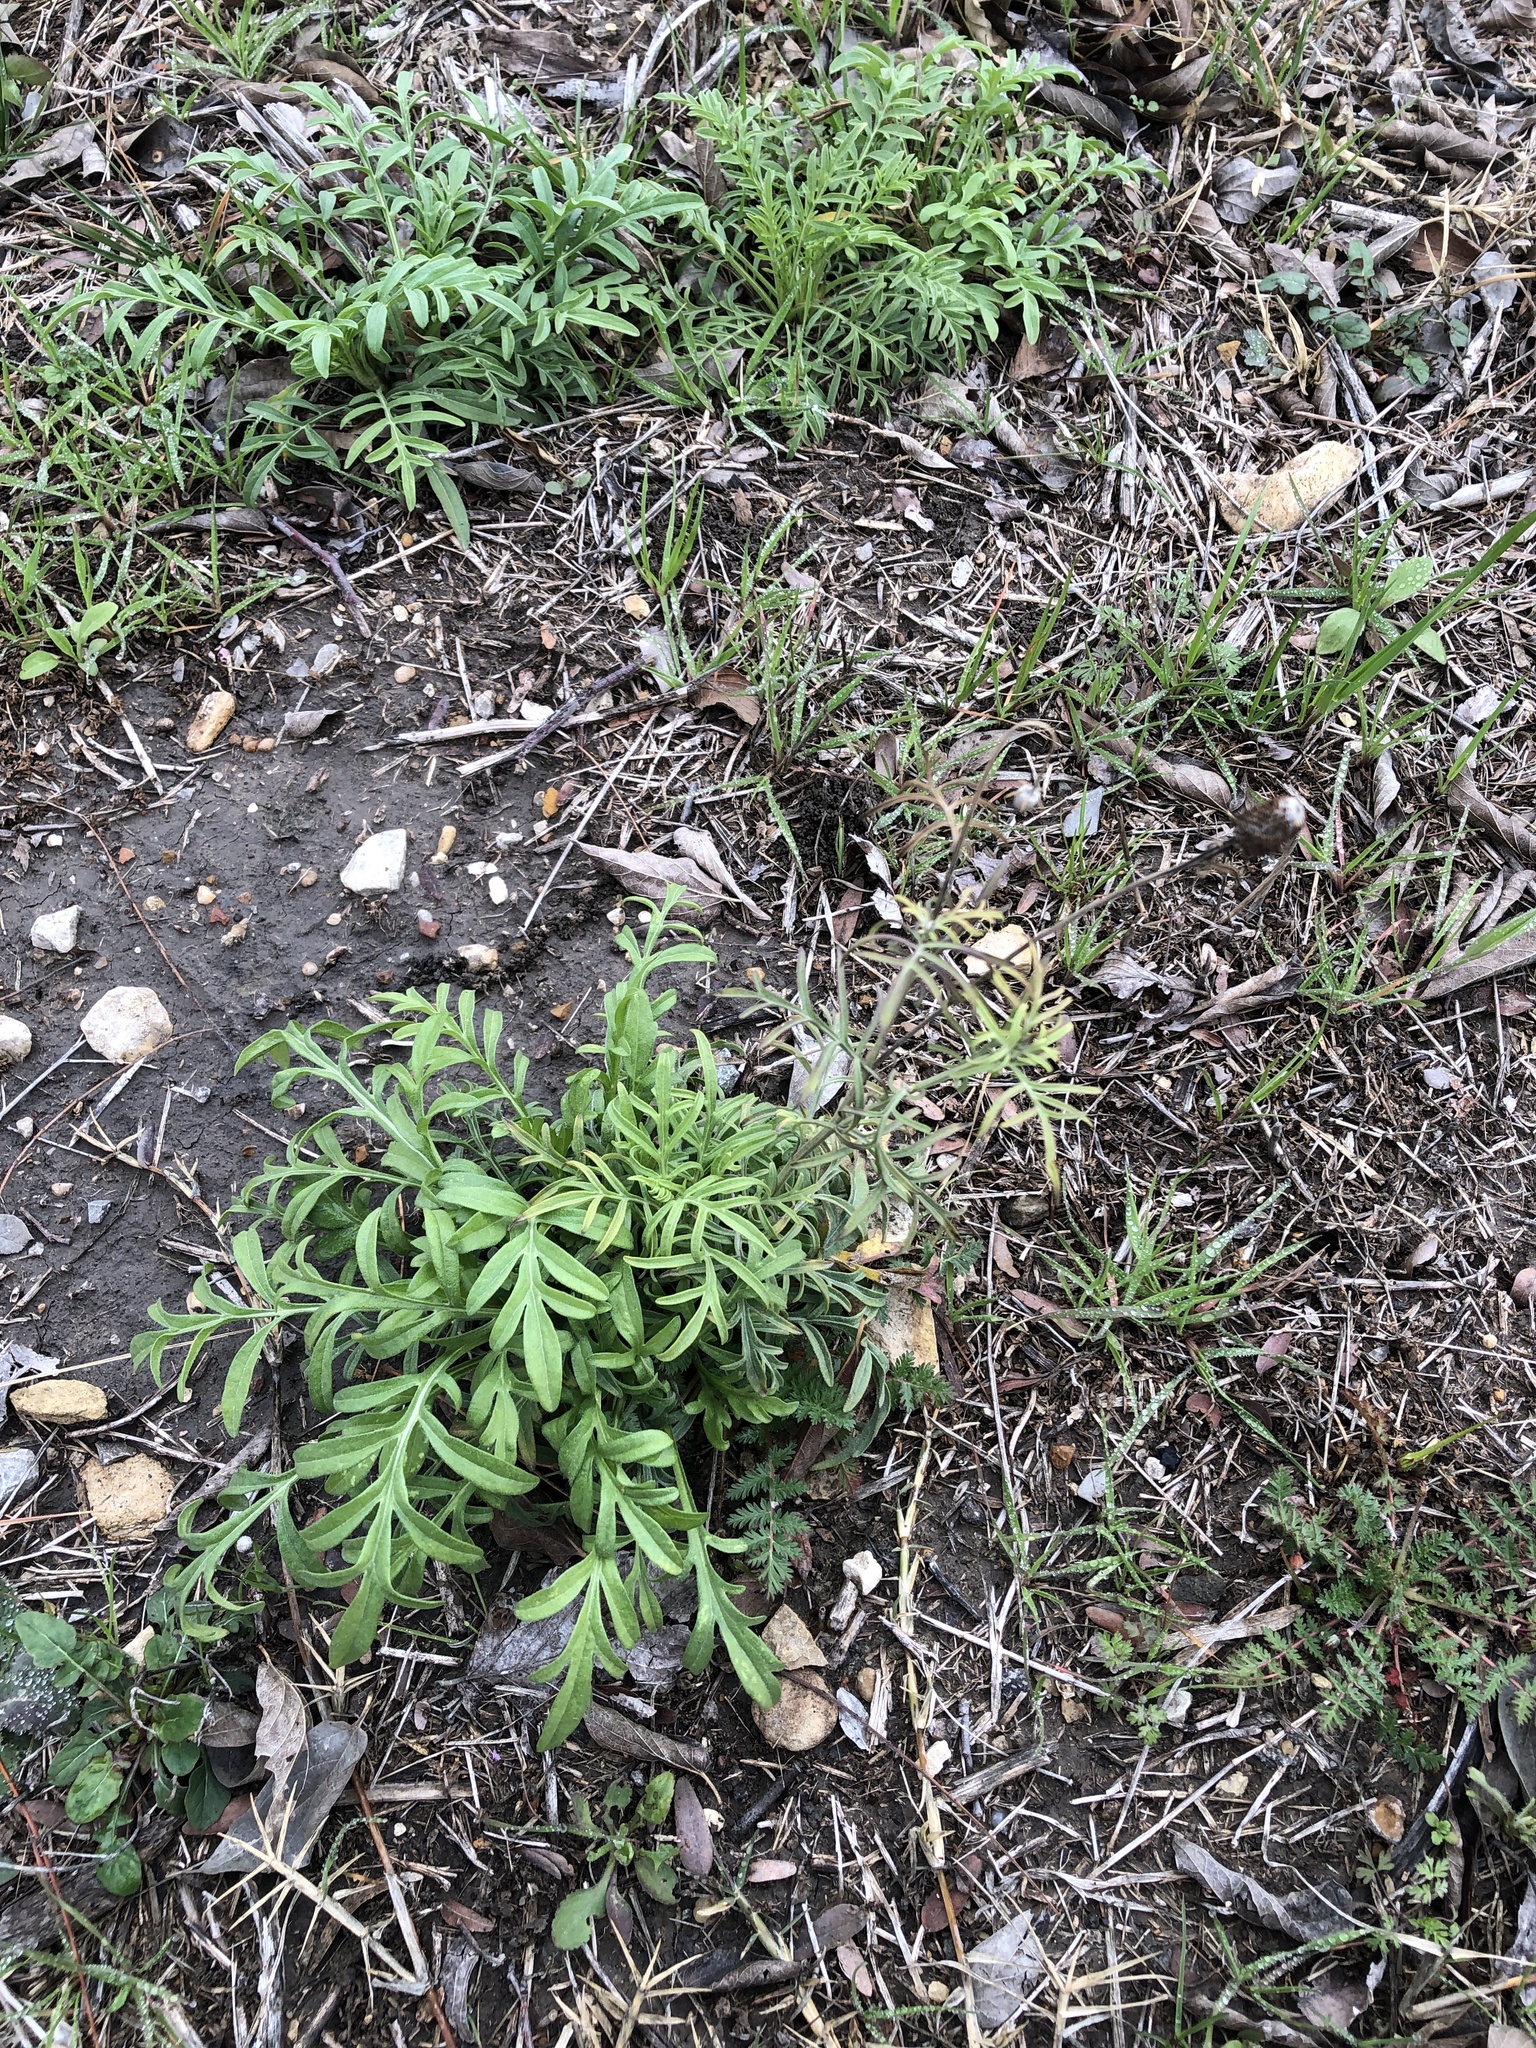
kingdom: Plantae
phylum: Tracheophyta
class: Magnoliopsida
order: Asterales
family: Asteraceae
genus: Ratibida
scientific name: Ratibida columnifera
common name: Prairie coneflower
